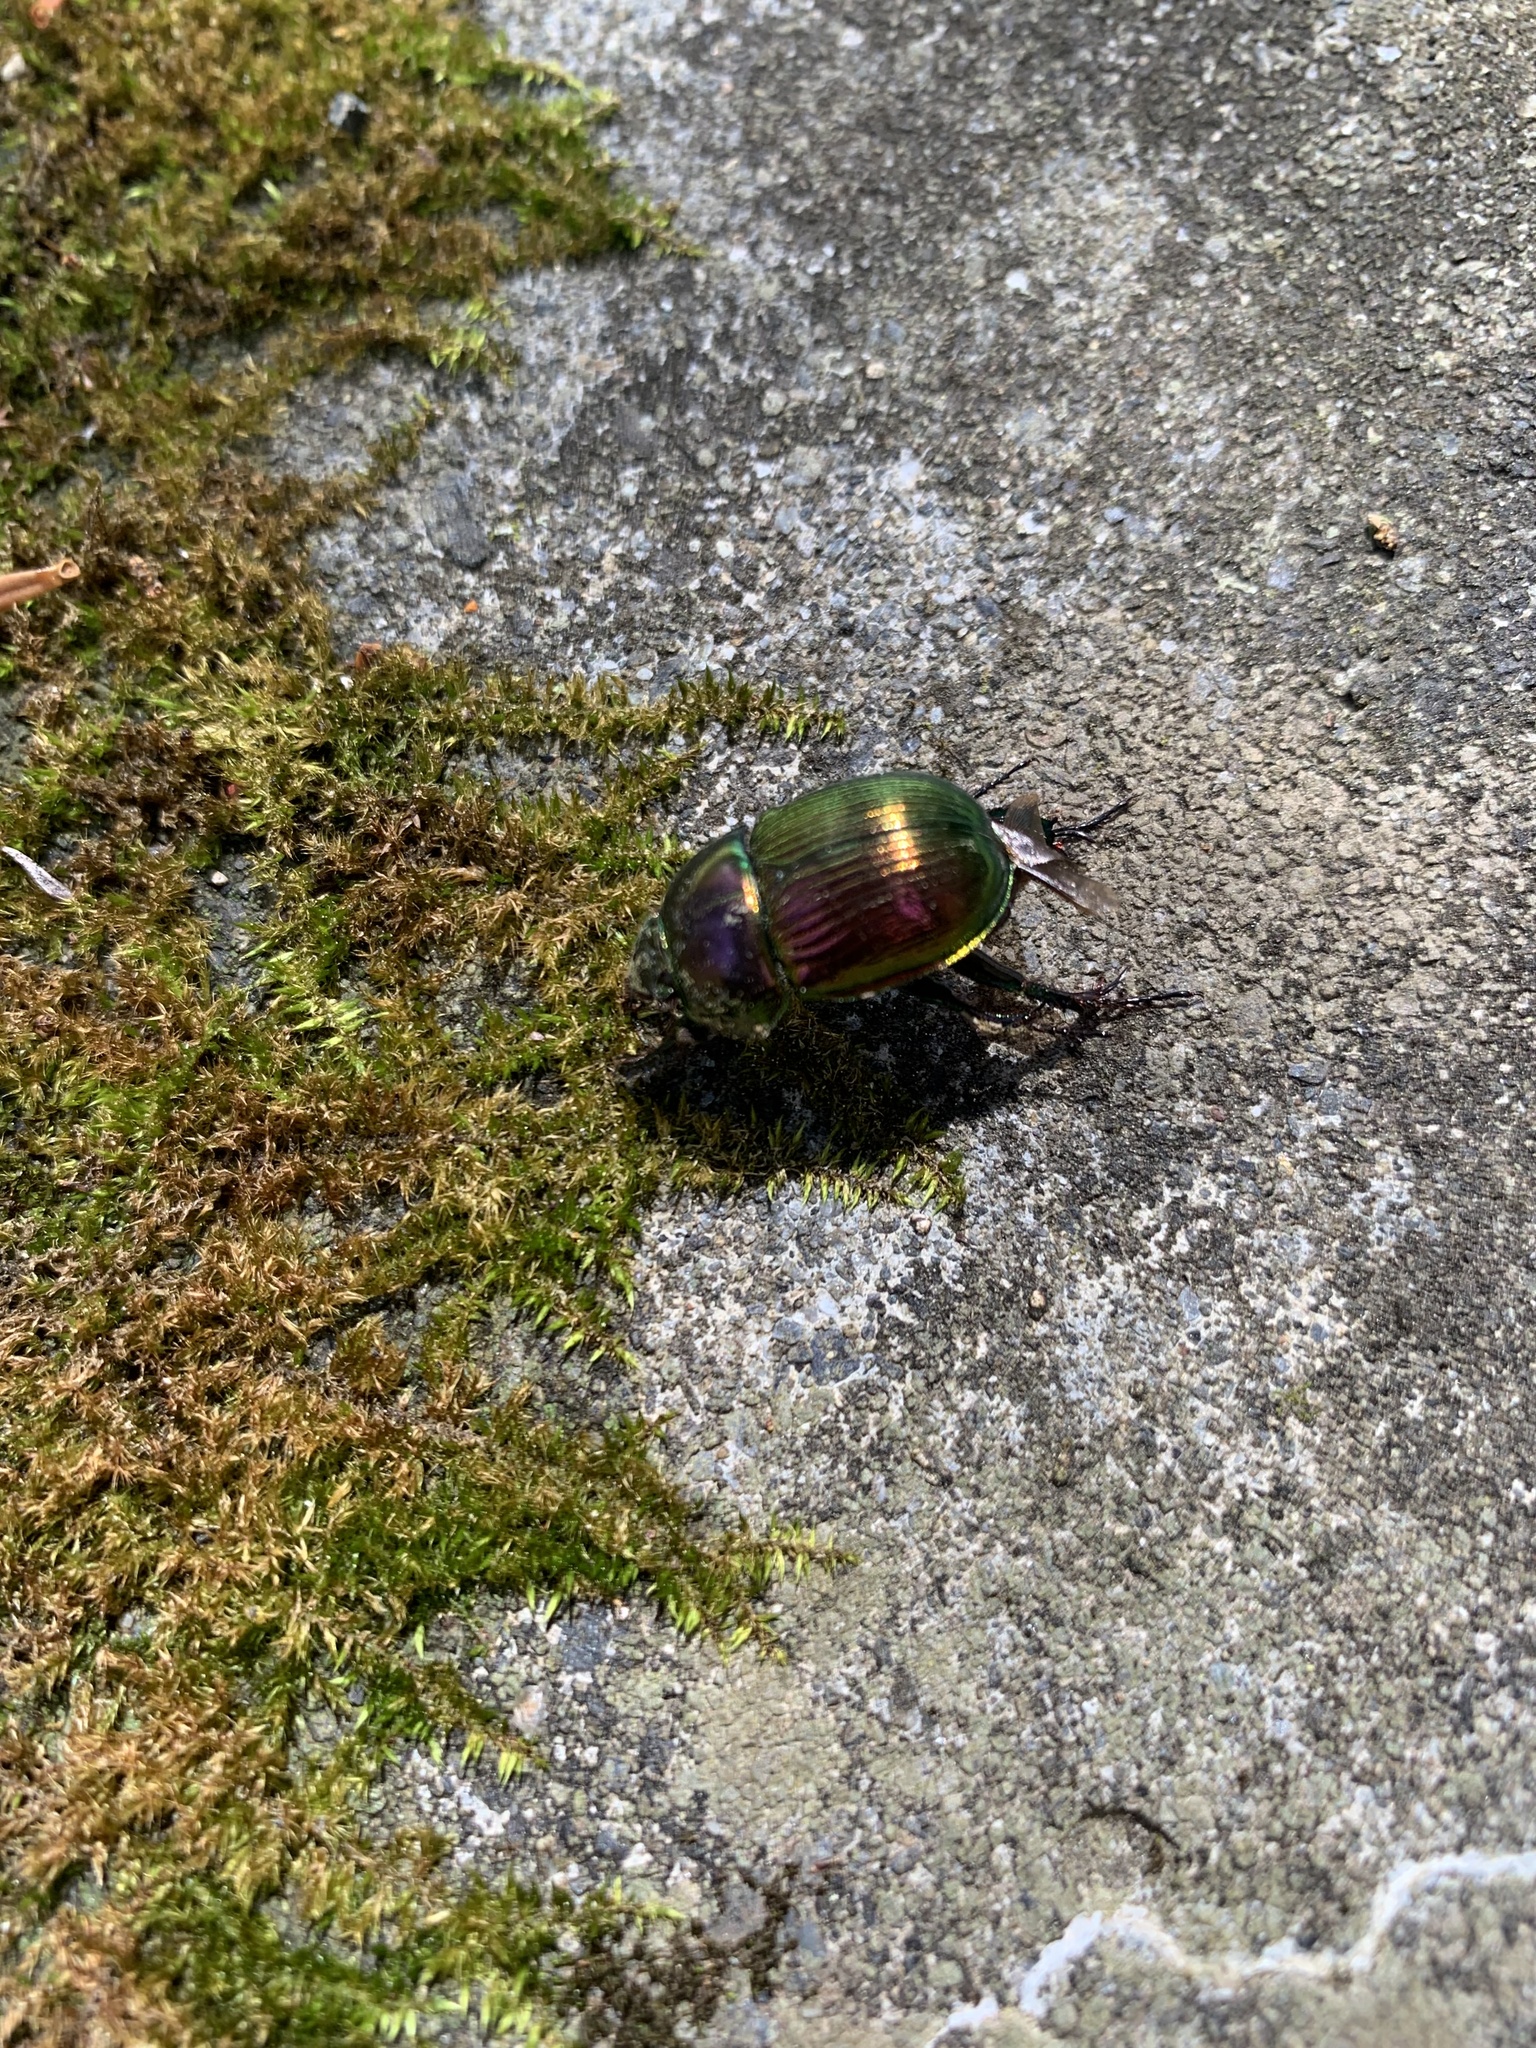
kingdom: Animalia
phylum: Arthropoda
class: Insecta
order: Coleoptera
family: Geotrupidae
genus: Phelotrupes
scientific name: Phelotrupes auratus
